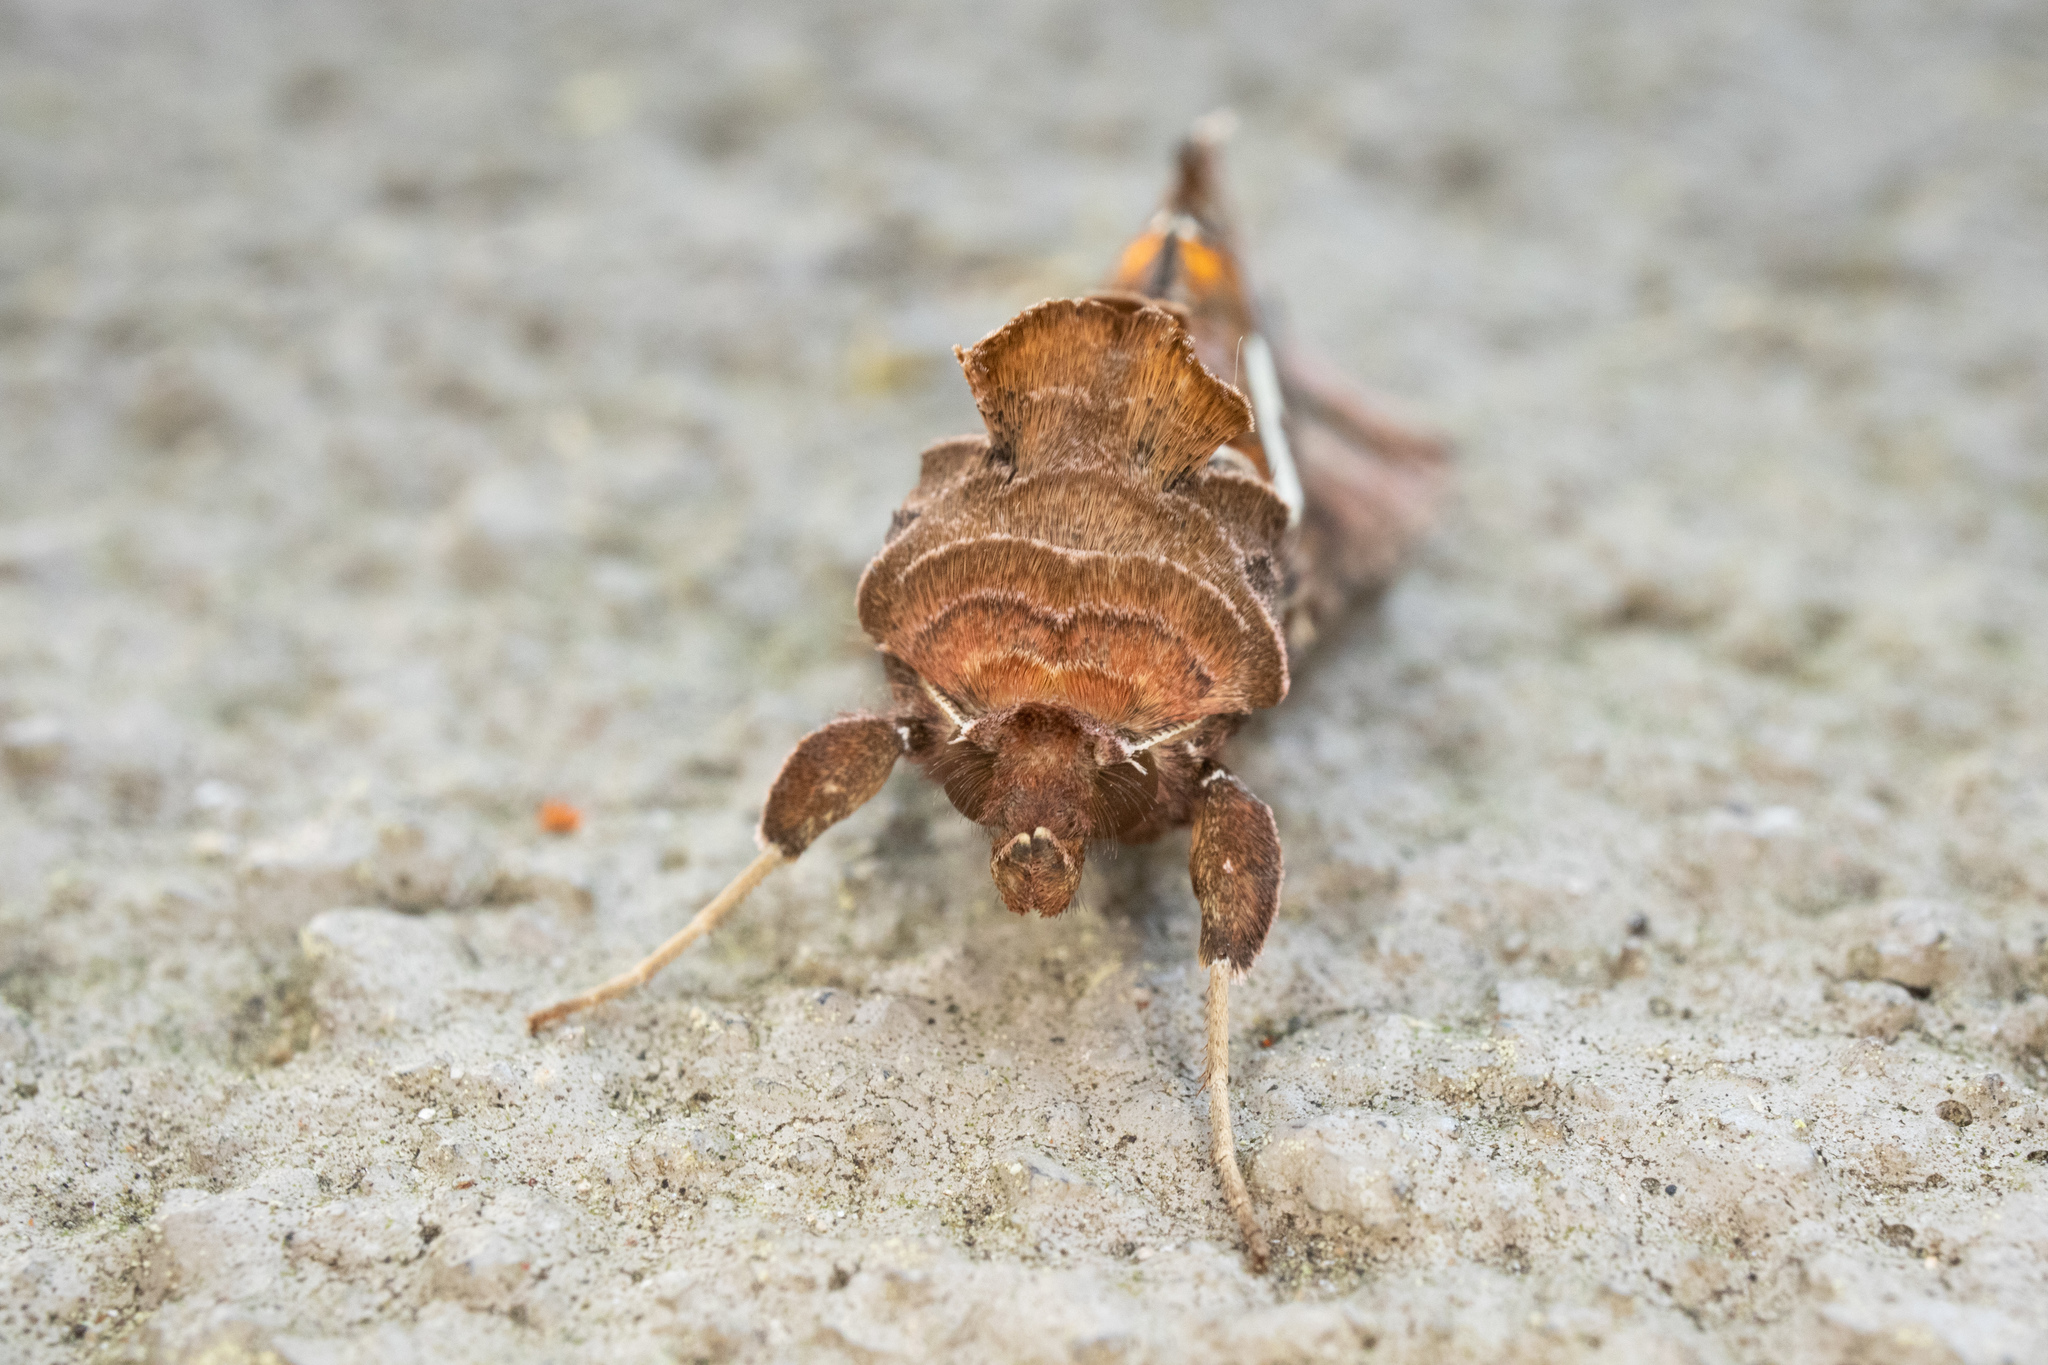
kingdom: Animalia
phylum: Arthropoda
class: Insecta
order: Lepidoptera
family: Noctuidae
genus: Megalographa
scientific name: Megalographa biloba
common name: Cutworm
